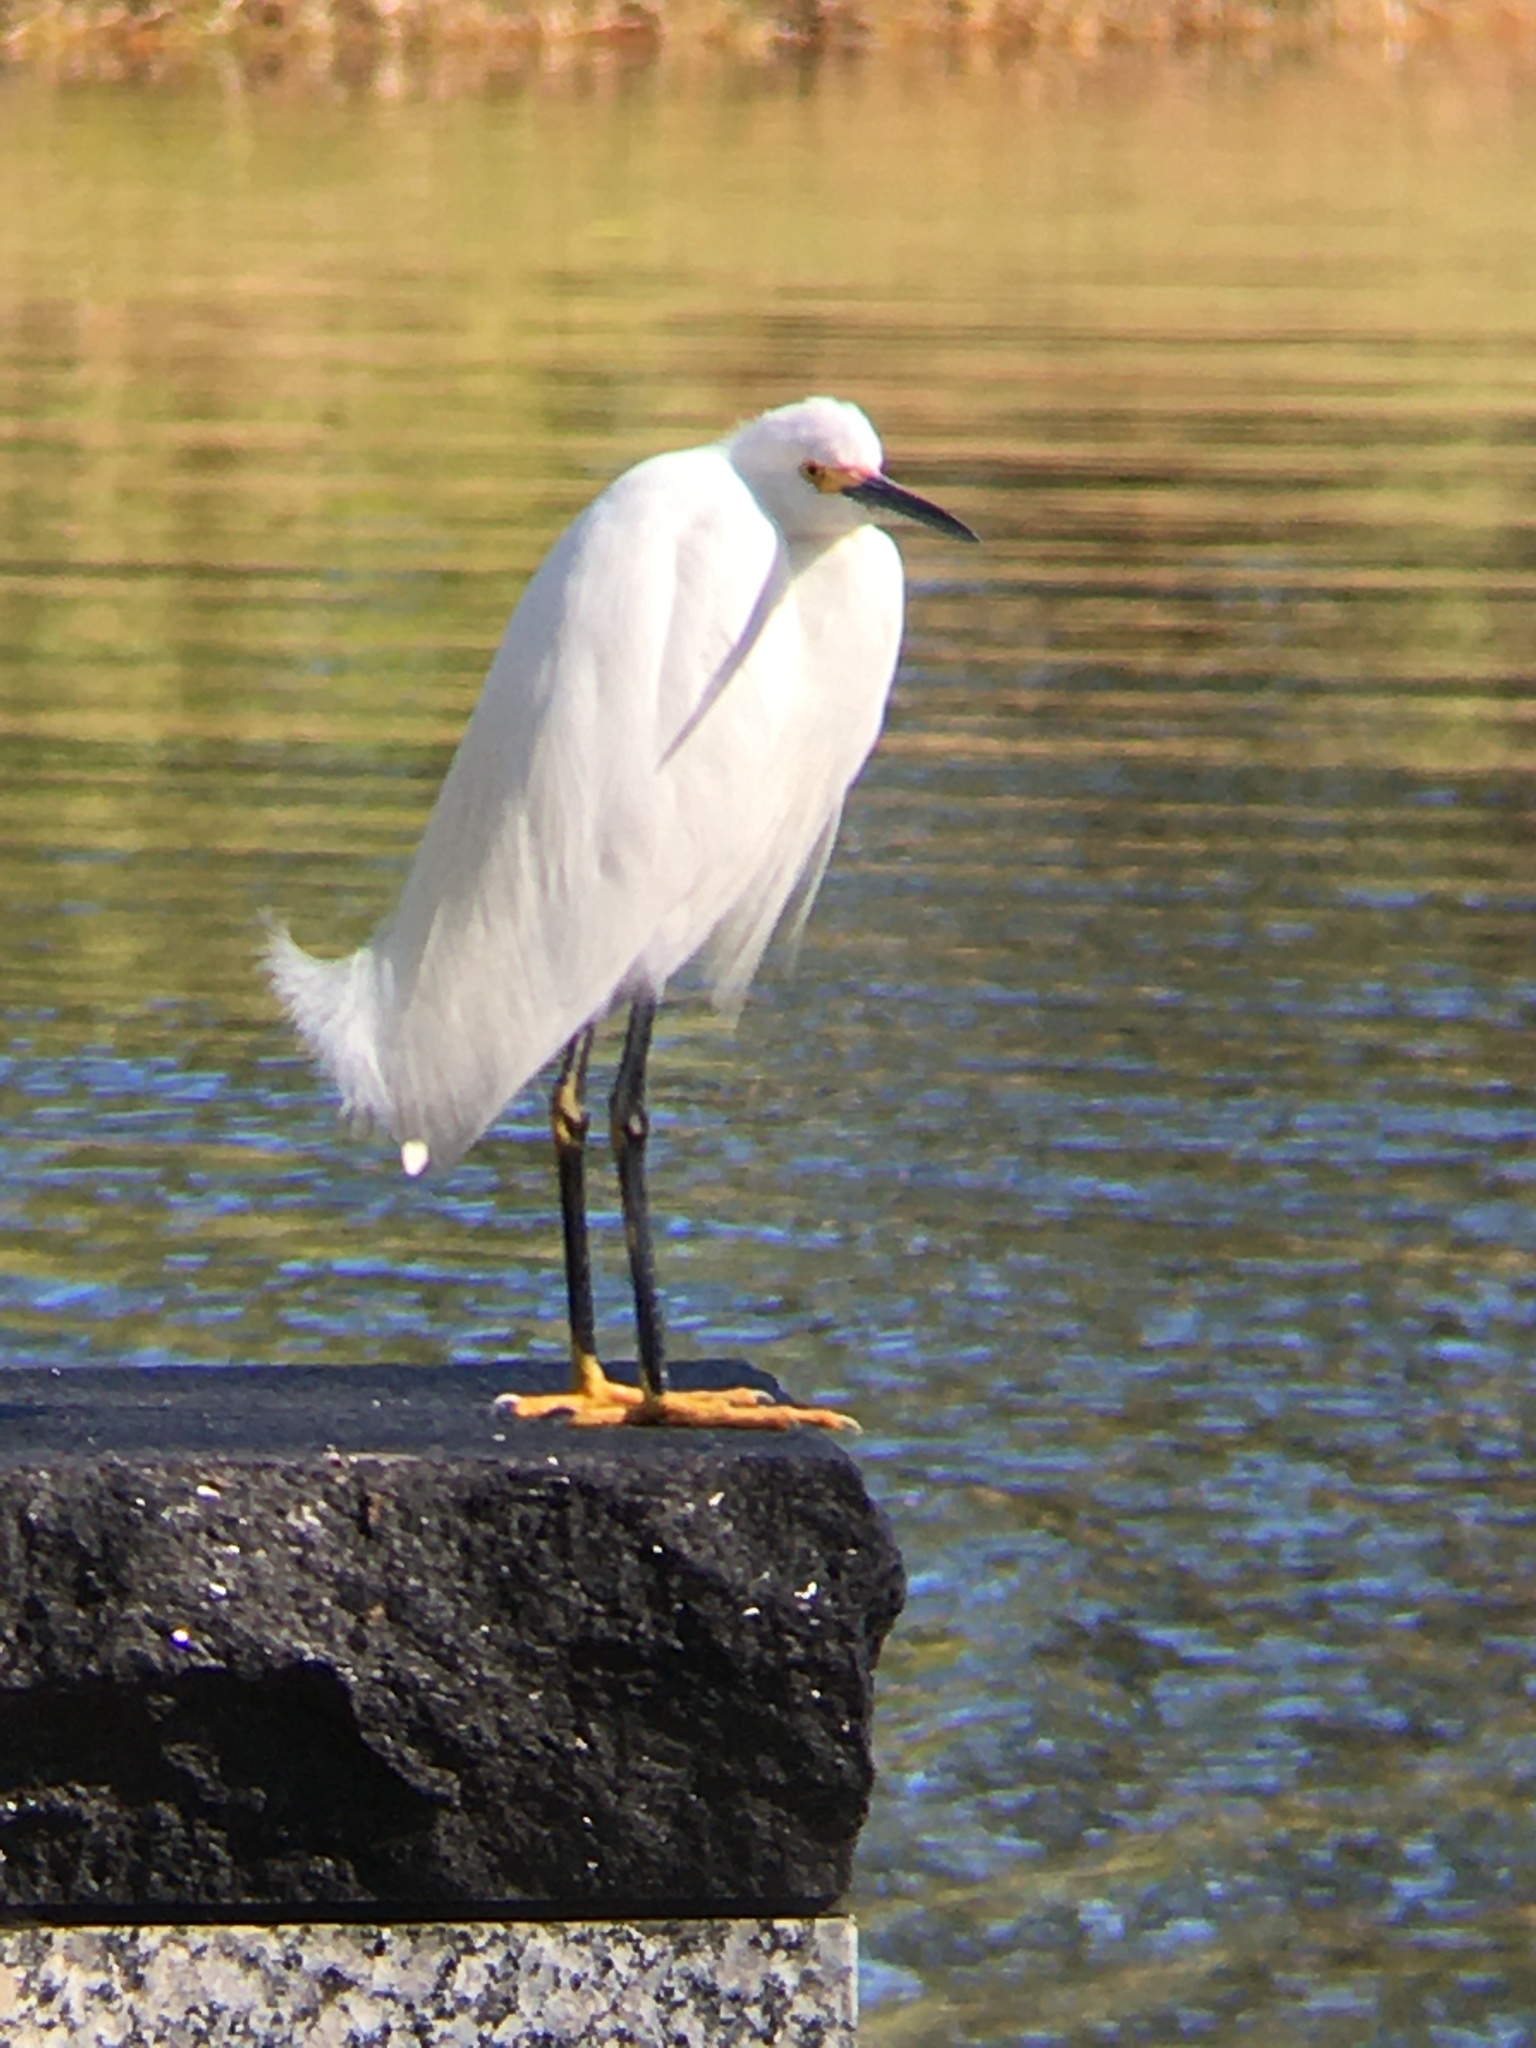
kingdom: Animalia
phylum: Chordata
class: Aves
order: Pelecaniformes
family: Ardeidae
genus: Egretta
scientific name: Egretta thula
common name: Snowy egret
